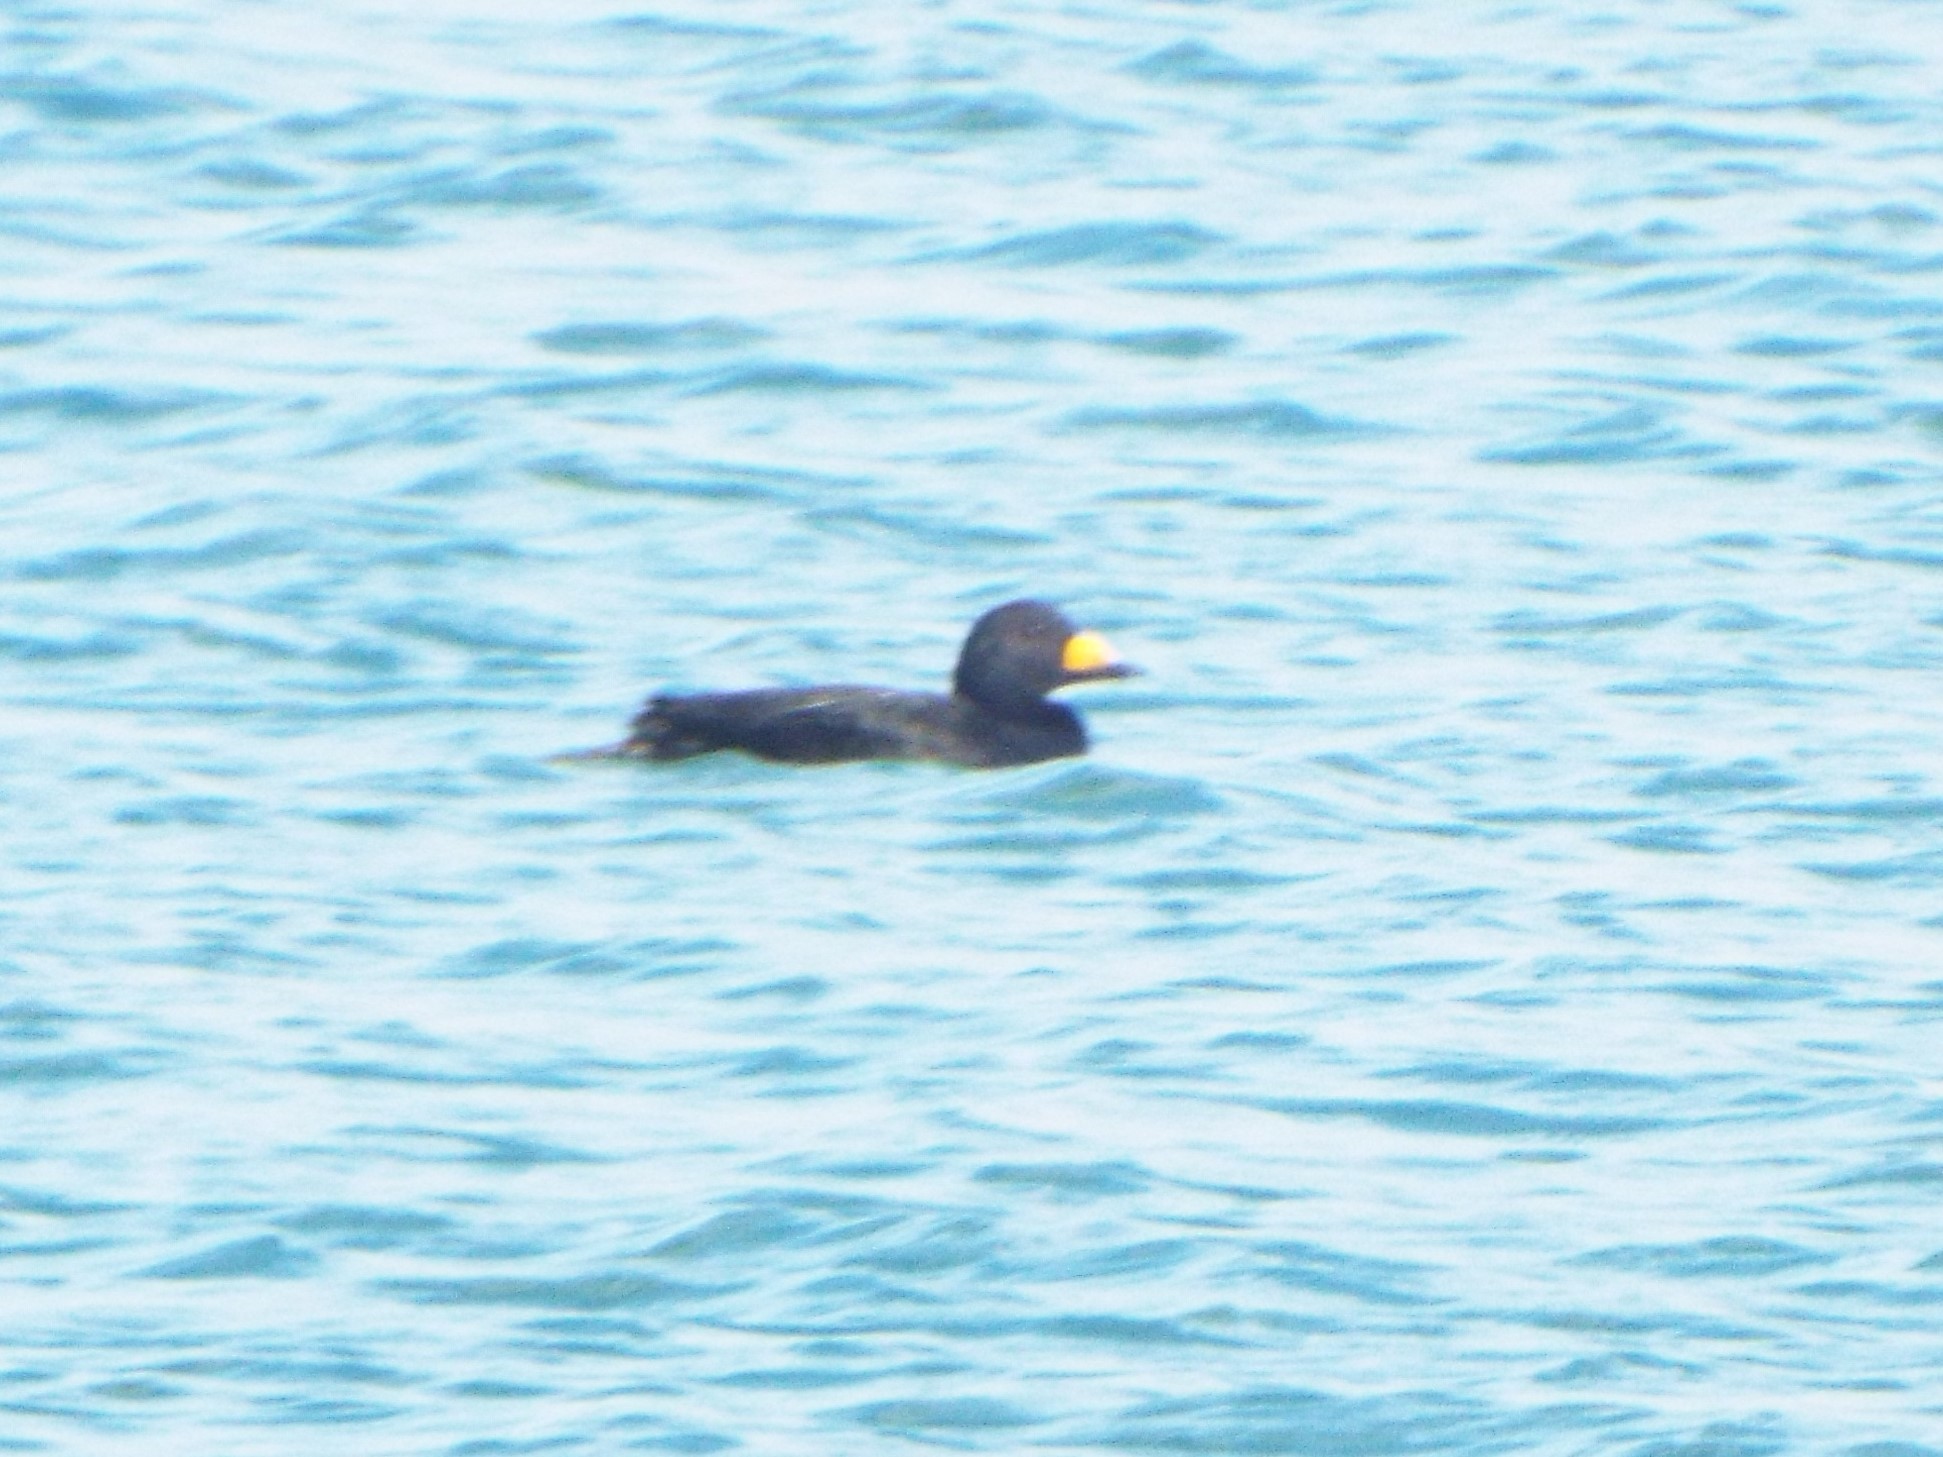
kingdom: Animalia
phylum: Chordata
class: Aves
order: Anseriformes
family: Anatidae
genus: Melanitta
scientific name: Melanitta americana
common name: Black scoter
